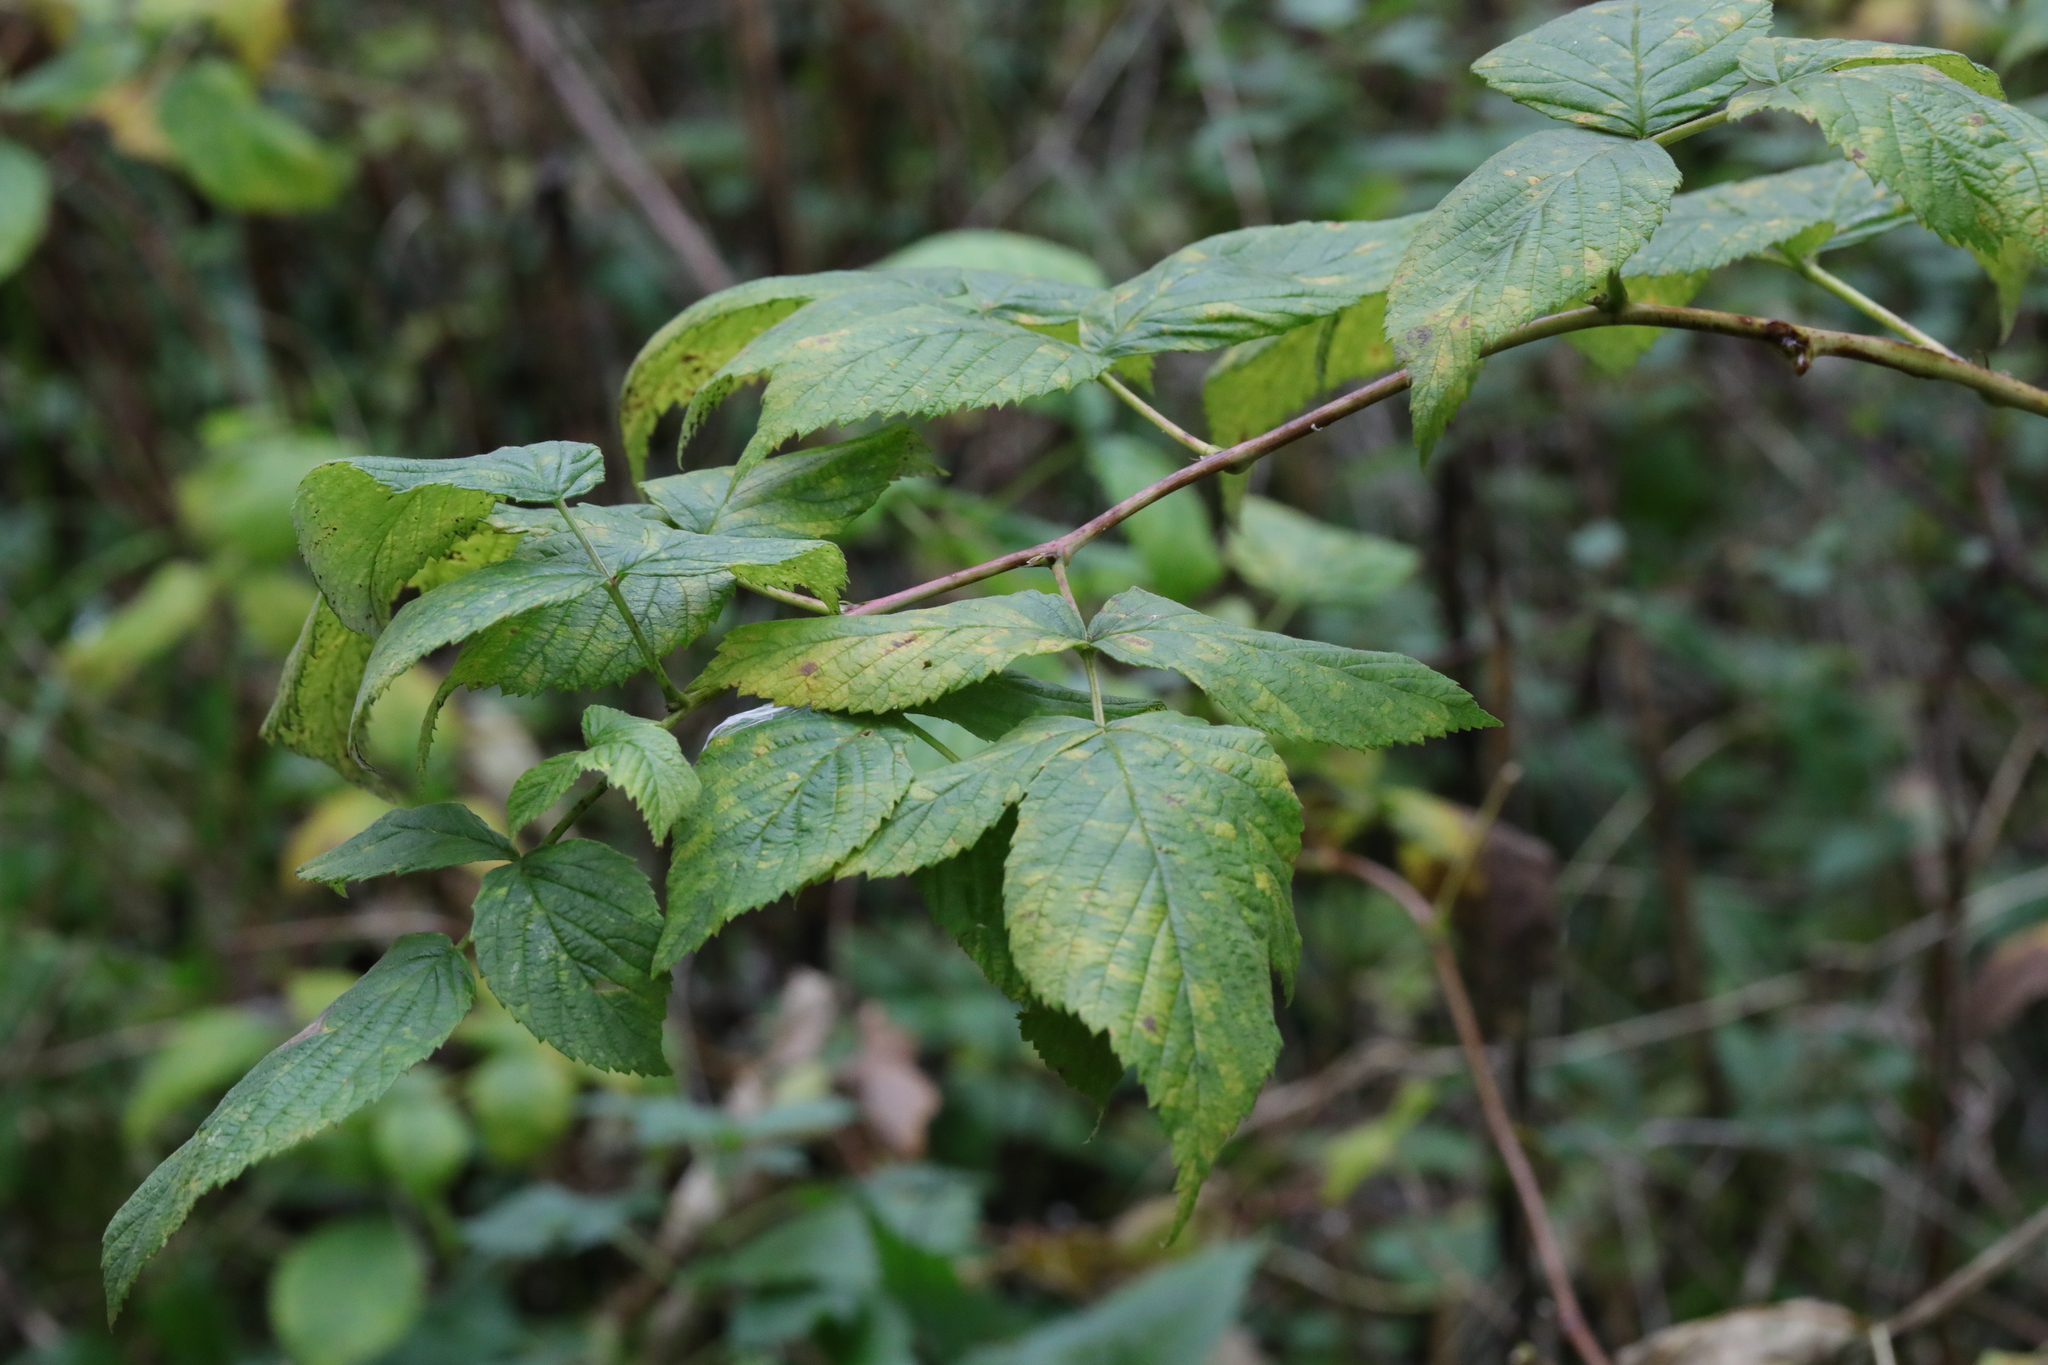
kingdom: Plantae
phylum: Tracheophyta
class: Magnoliopsida
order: Rosales
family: Rosaceae
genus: Rubus
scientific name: Rubus idaeus
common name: Raspberry
